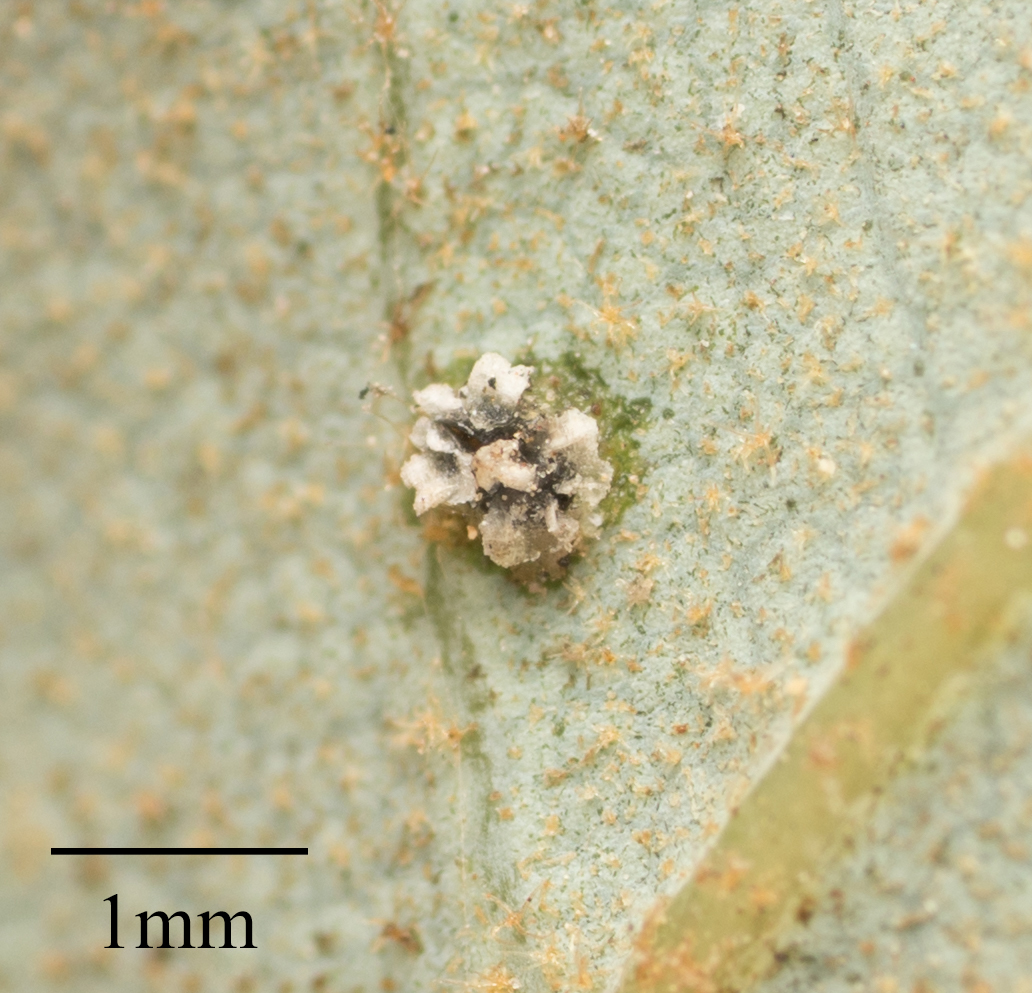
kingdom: Animalia
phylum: Arthropoda
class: Insecta
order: Hemiptera
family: Aleyrodidae
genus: Aleuroplatus
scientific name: Aleuroplatus coronata
